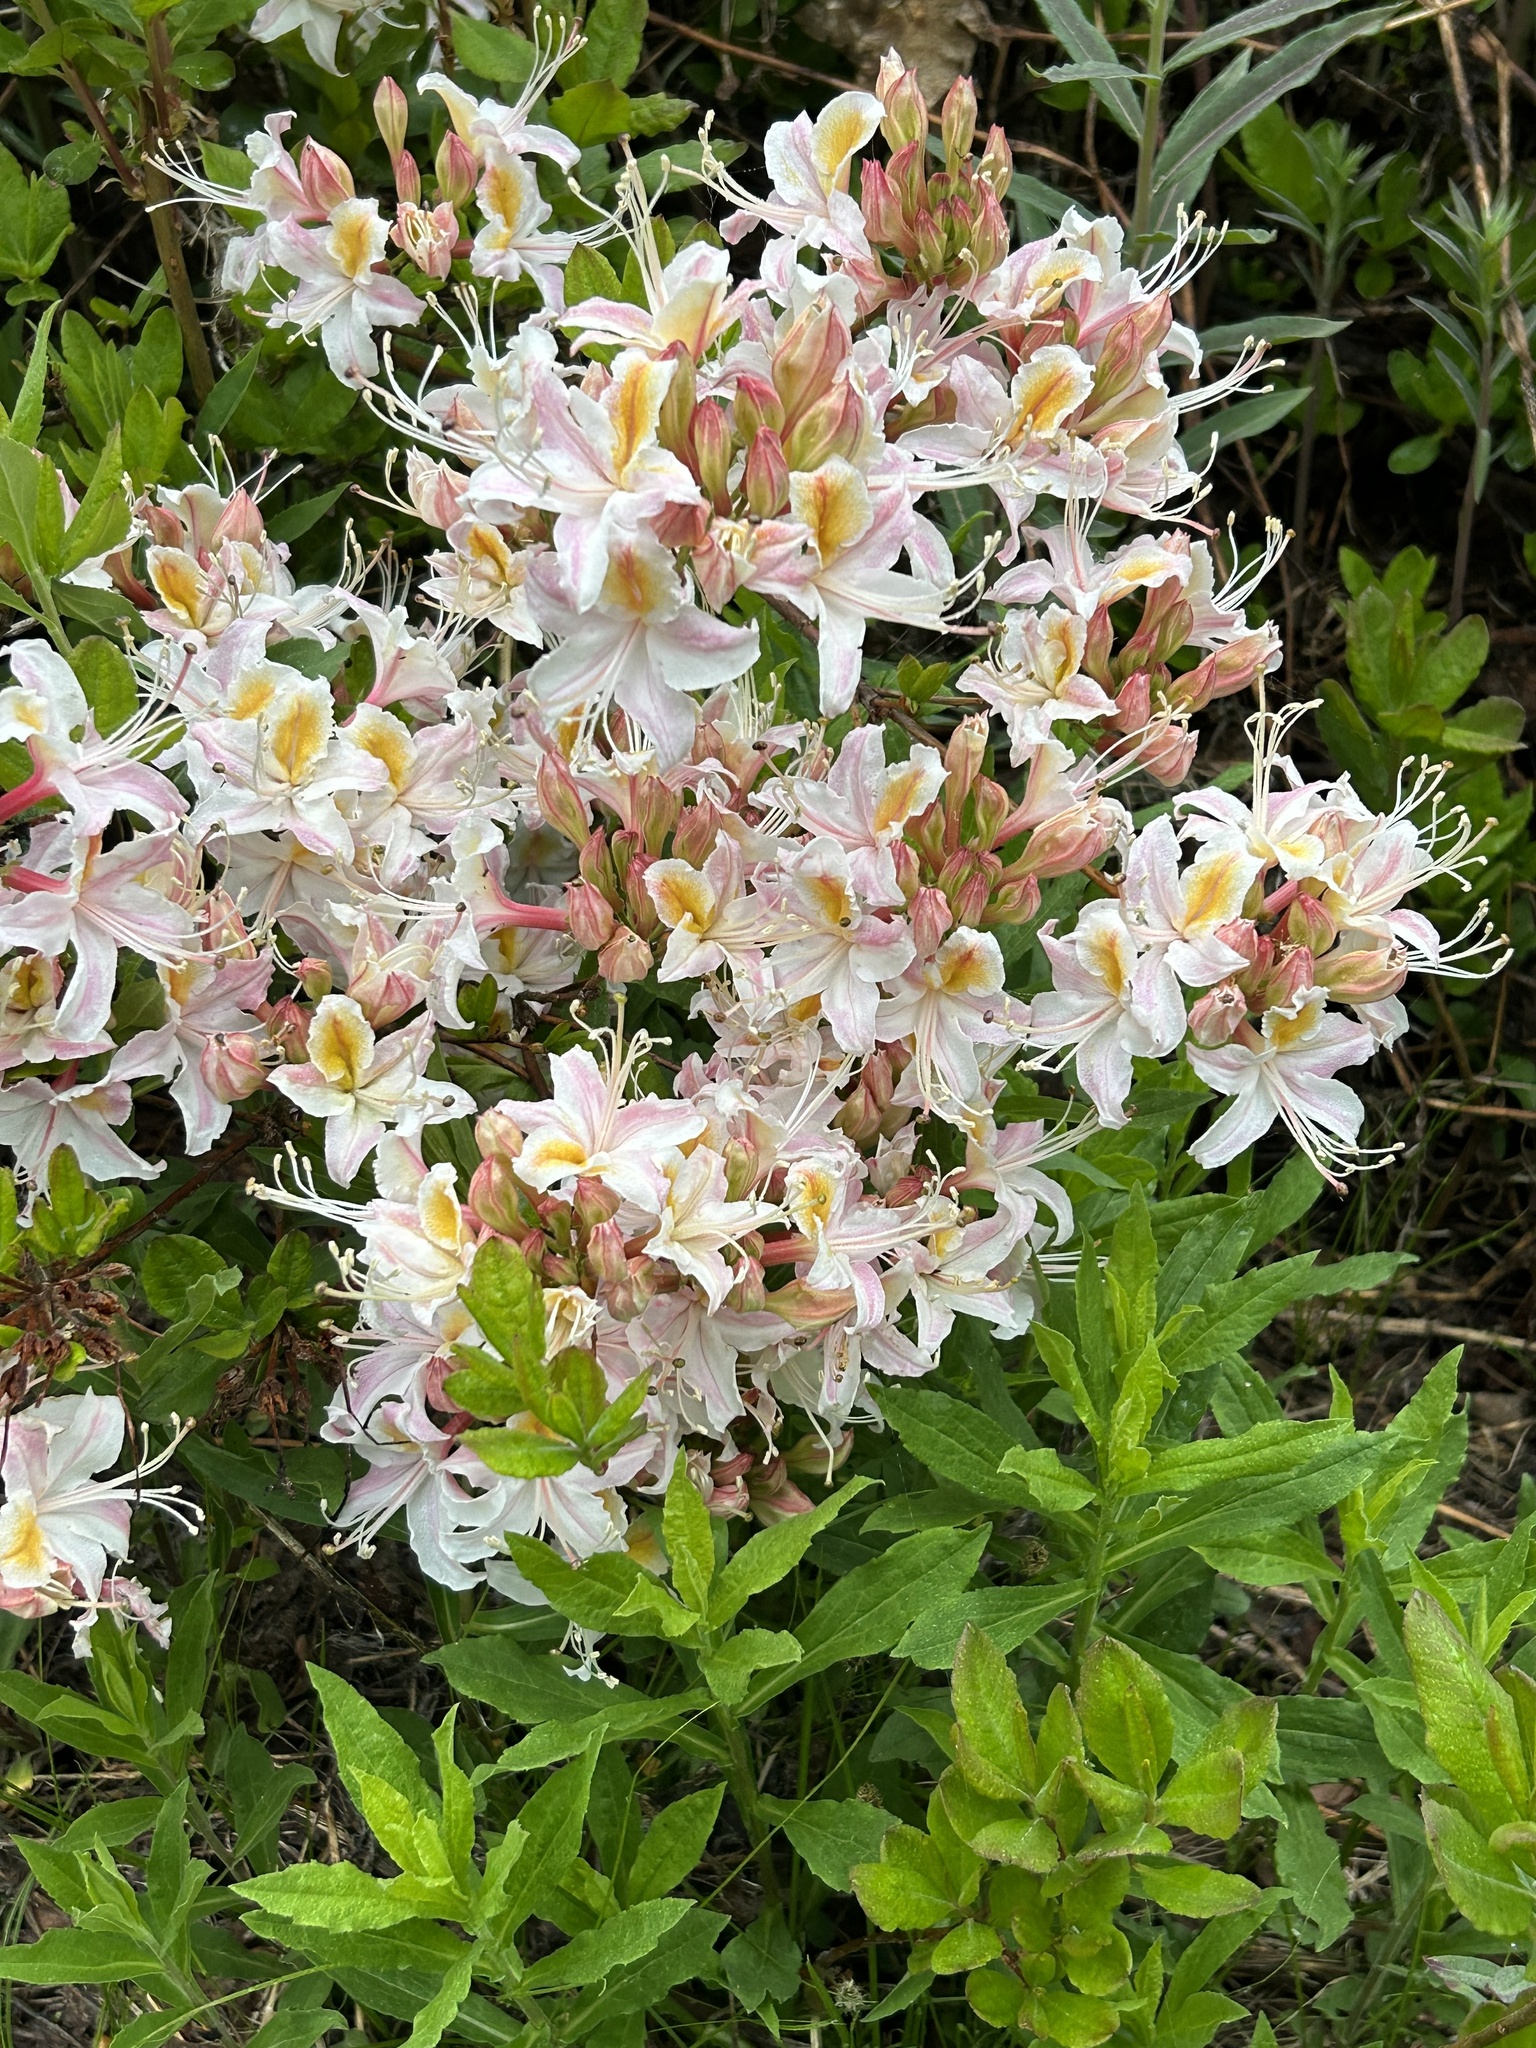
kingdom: Plantae
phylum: Tracheophyta
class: Magnoliopsida
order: Ericales
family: Ericaceae
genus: Rhododendron
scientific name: Rhododendron occidentale
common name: Western azalea
